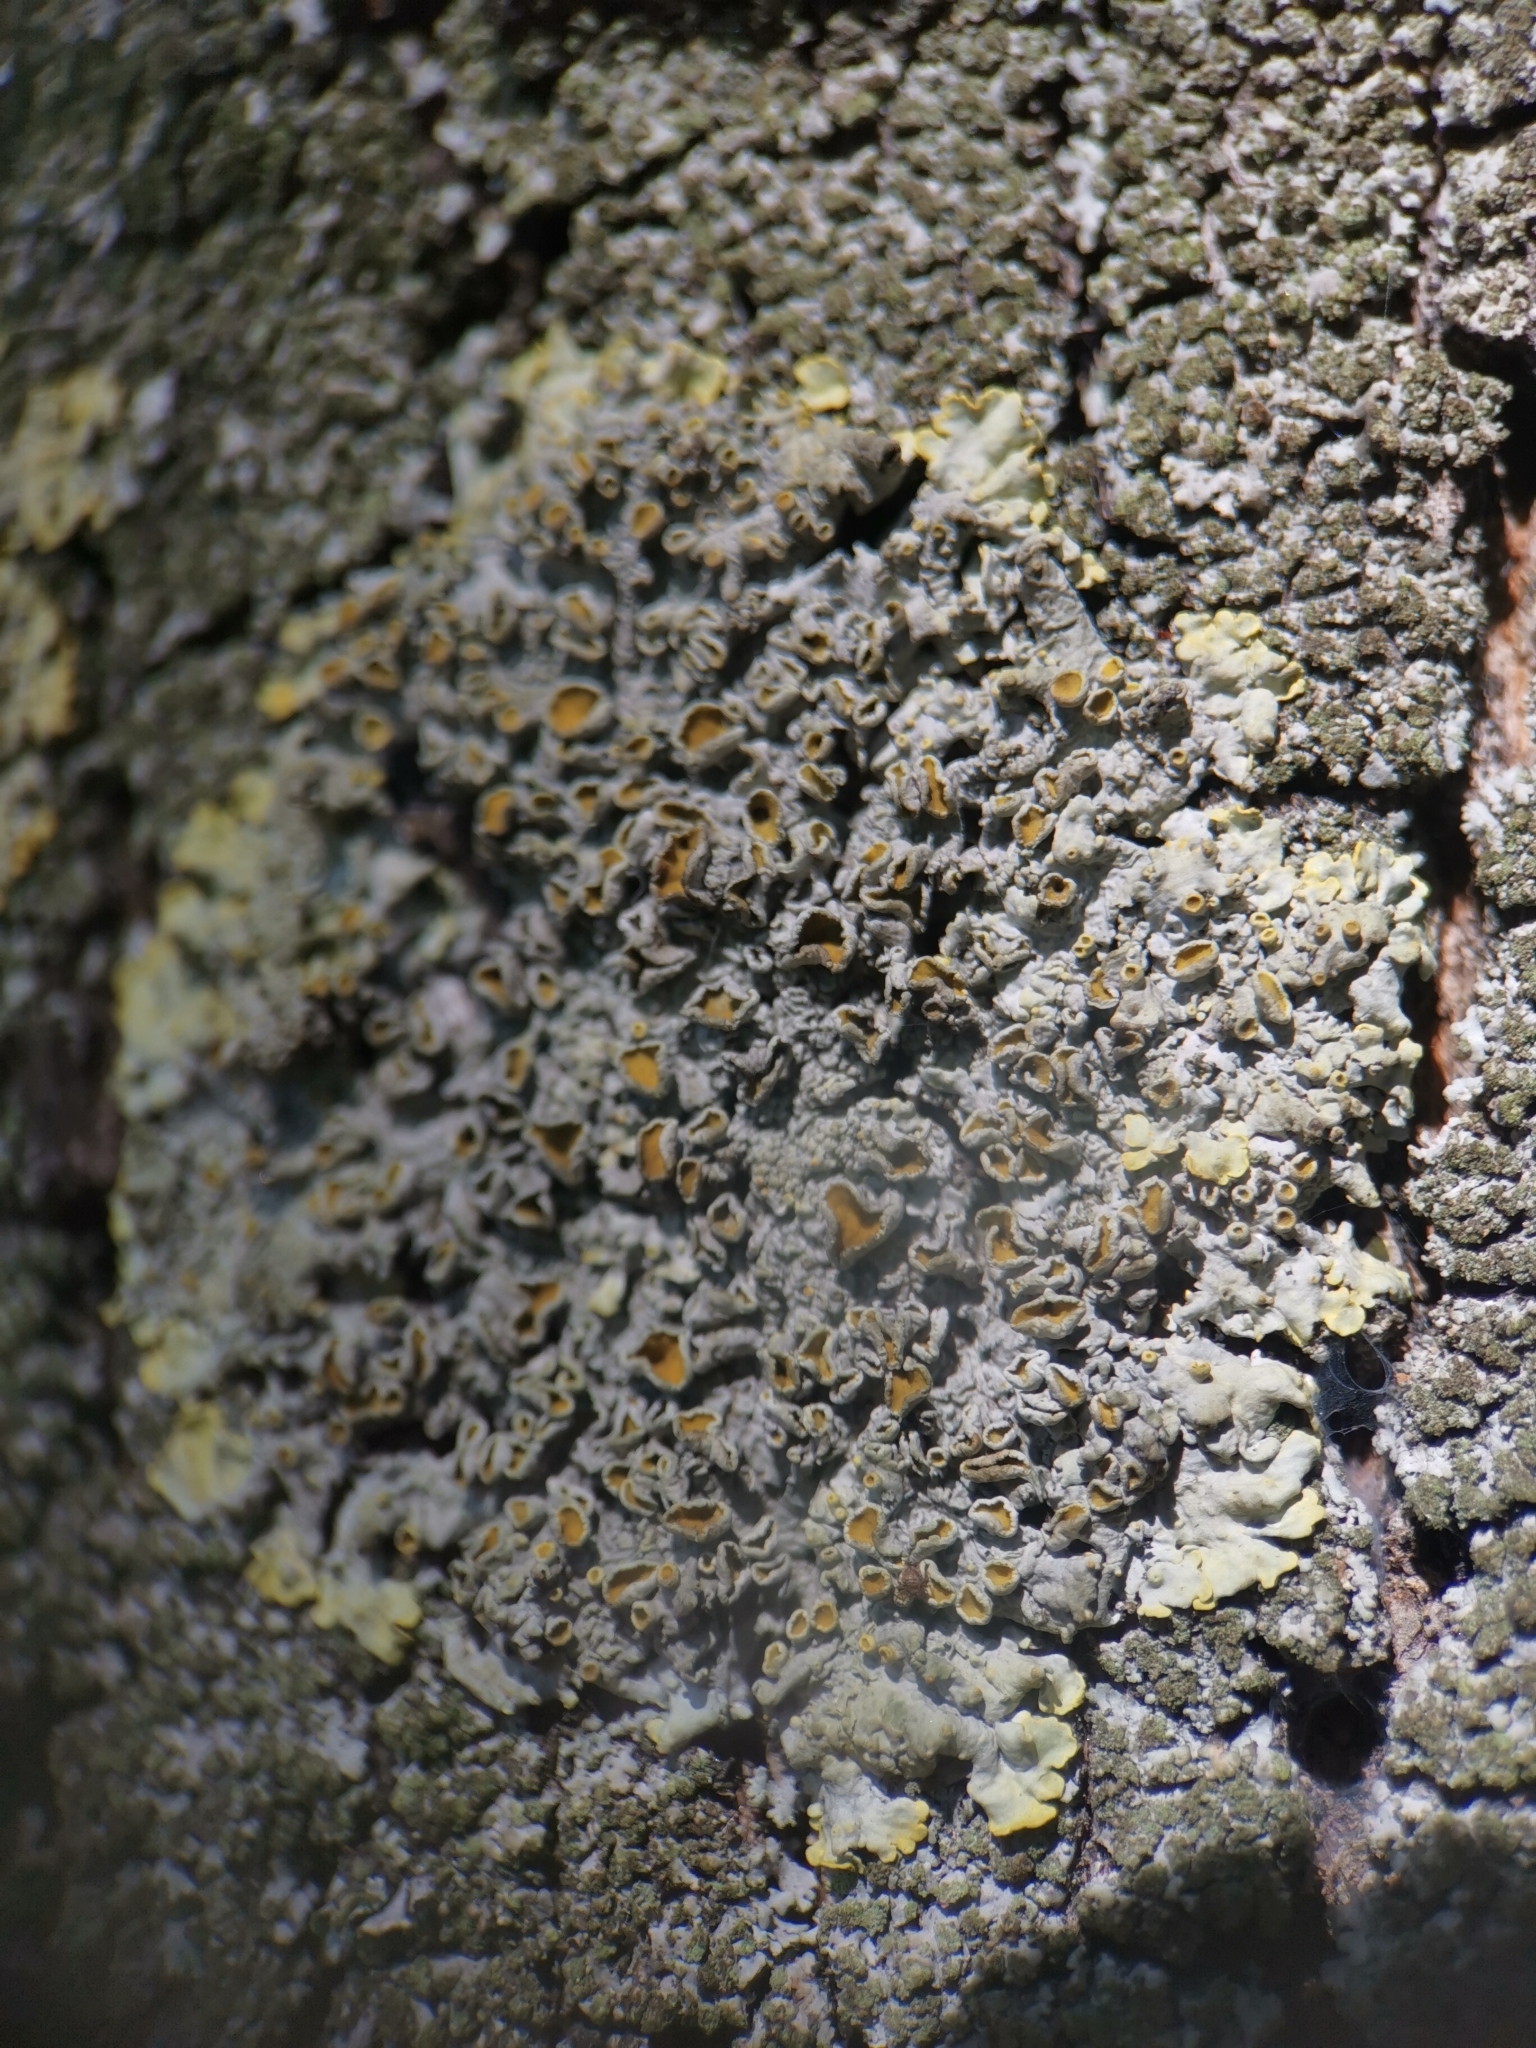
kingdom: Fungi
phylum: Ascomycota
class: Lecanoromycetes
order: Teloschistales
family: Teloschistaceae
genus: Xanthoria
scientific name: Xanthoria parietina
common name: Common orange lichen
